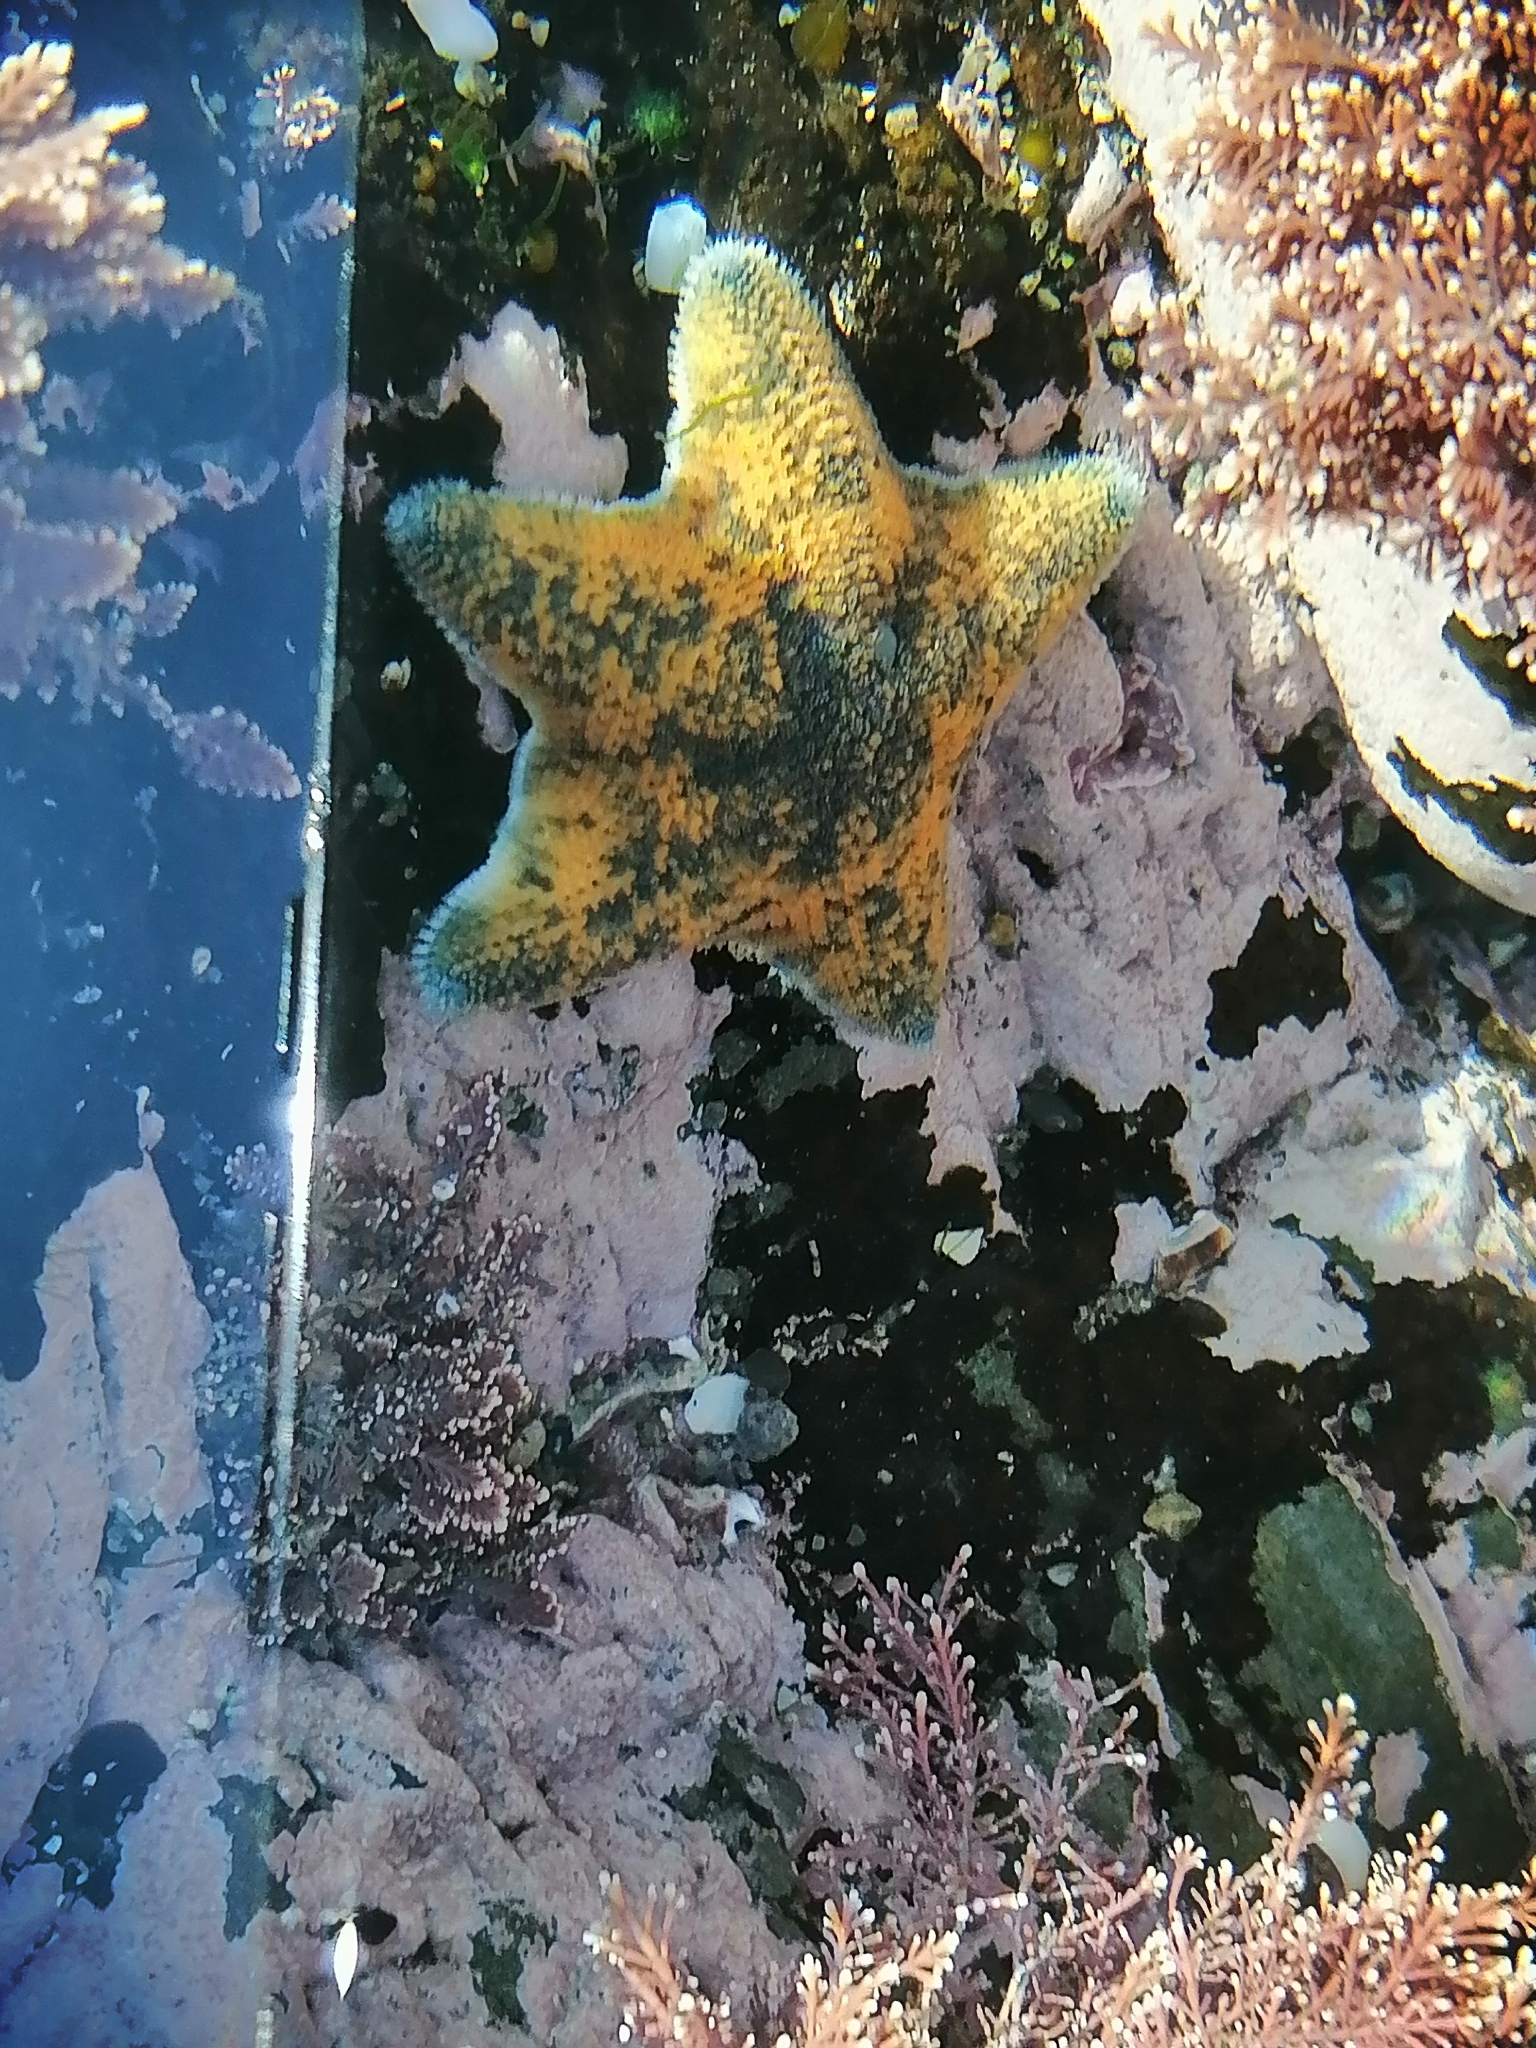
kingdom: Animalia
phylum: Echinodermata
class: Asteroidea
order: Valvatida
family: Asterinidae
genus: Patiriella
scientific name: Patiriella regularis
